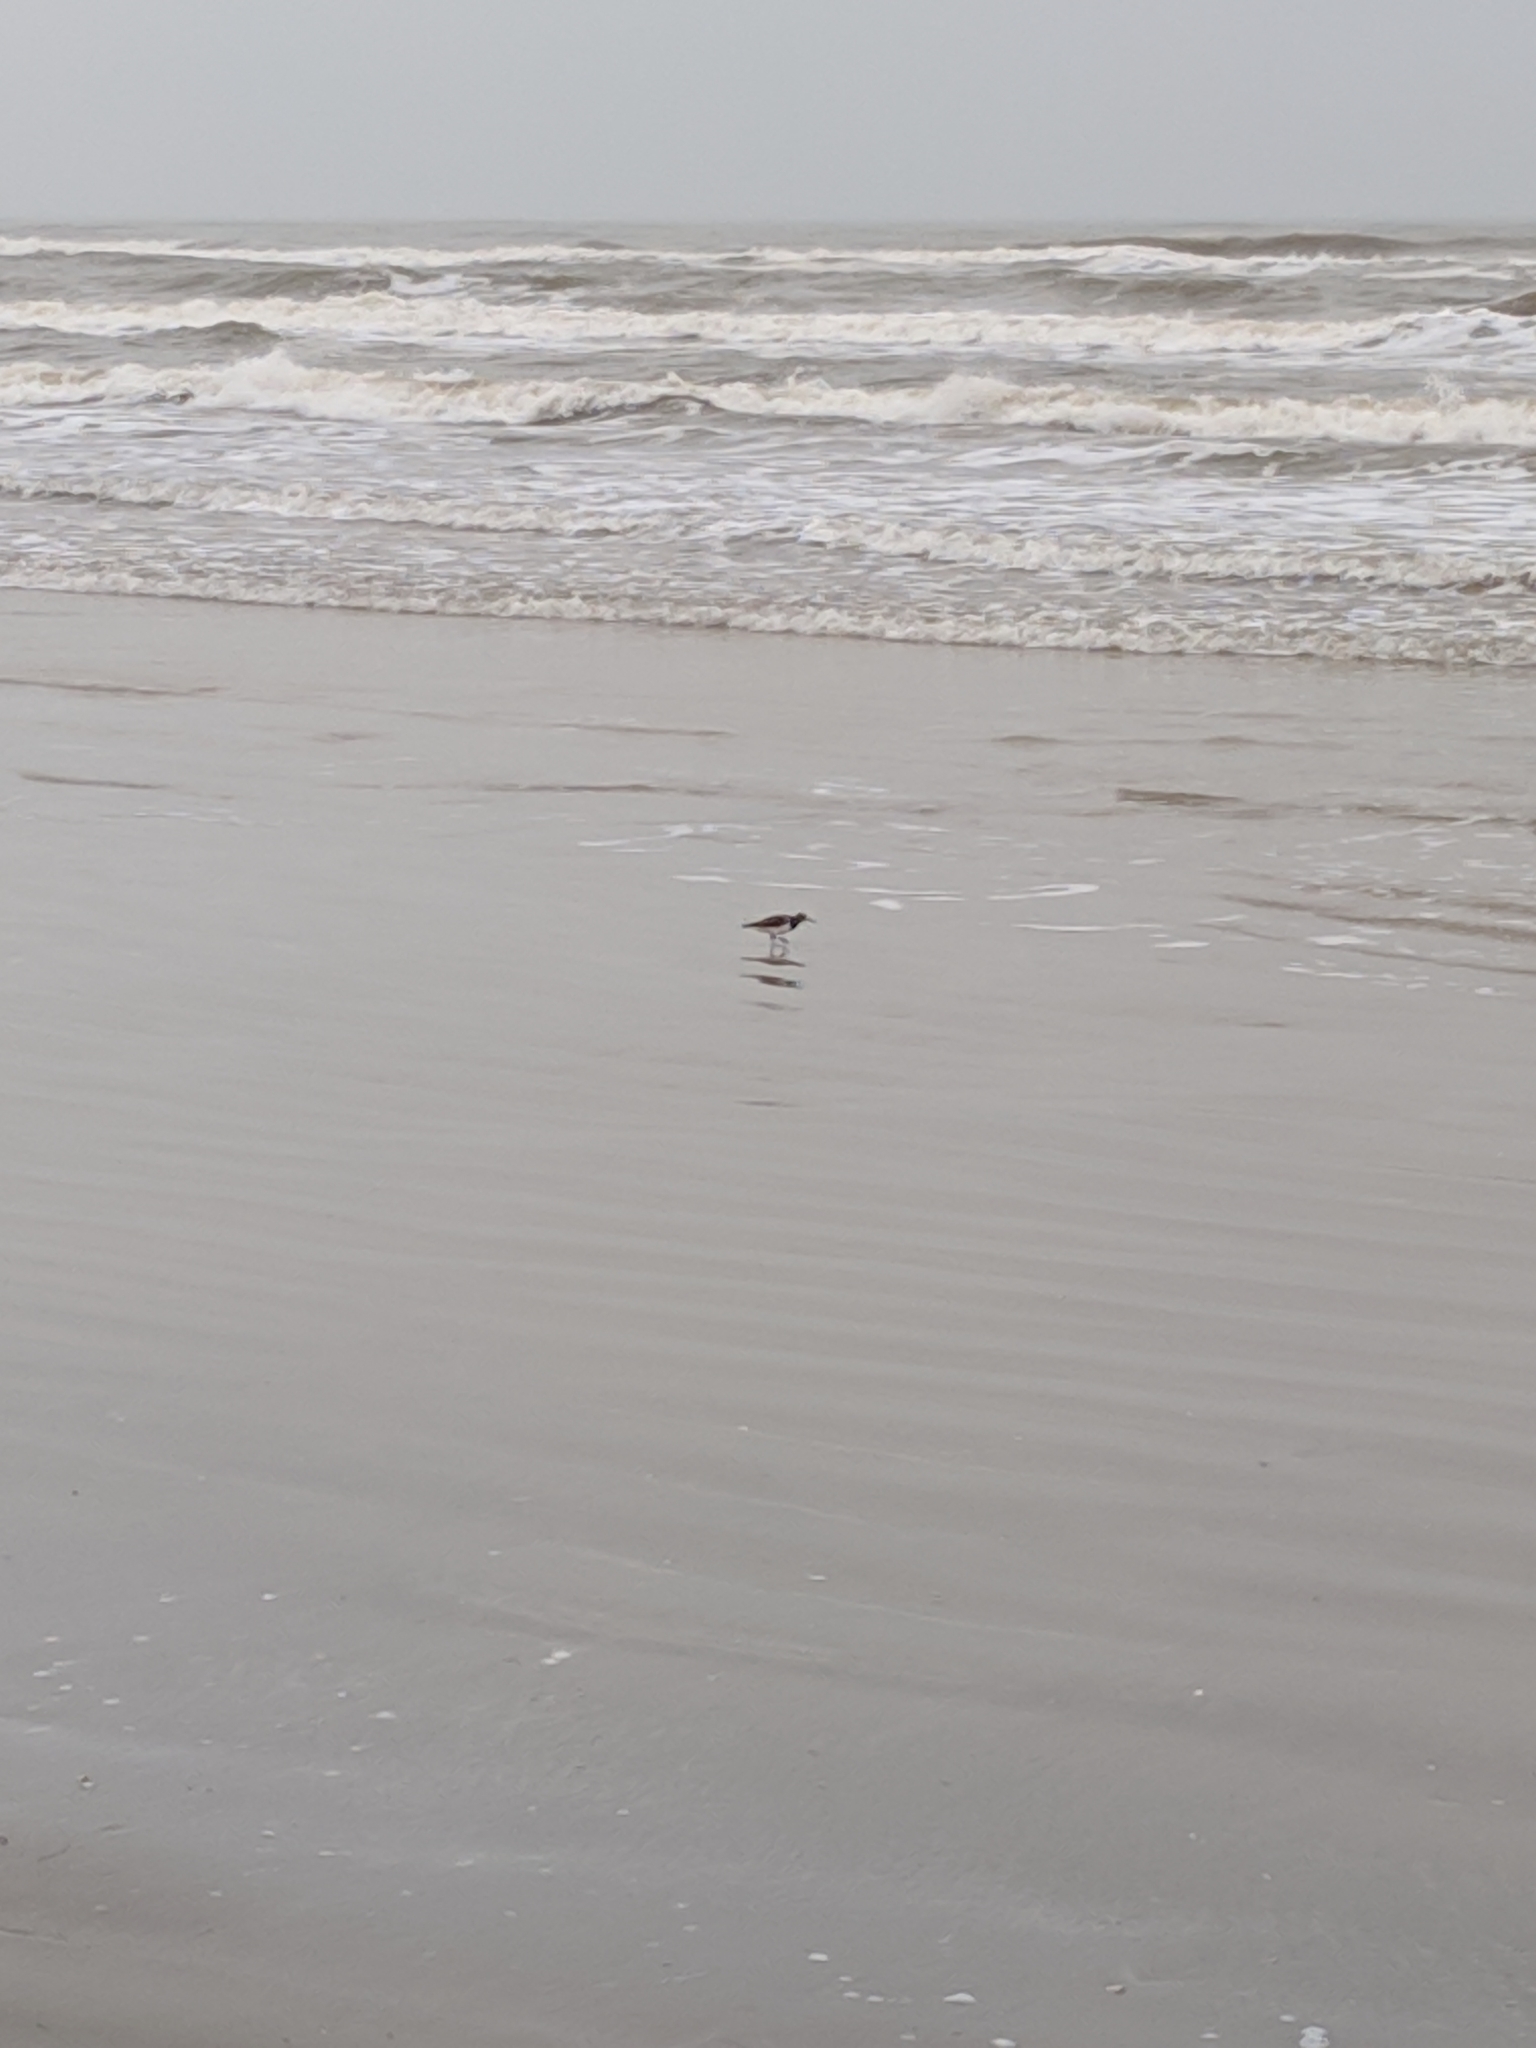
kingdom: Animalia
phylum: Chordata
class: Aves
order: Charadriiformes
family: Scolopacidae
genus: Arenaria
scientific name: Arenaria interpres
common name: Ruddy turnstone
